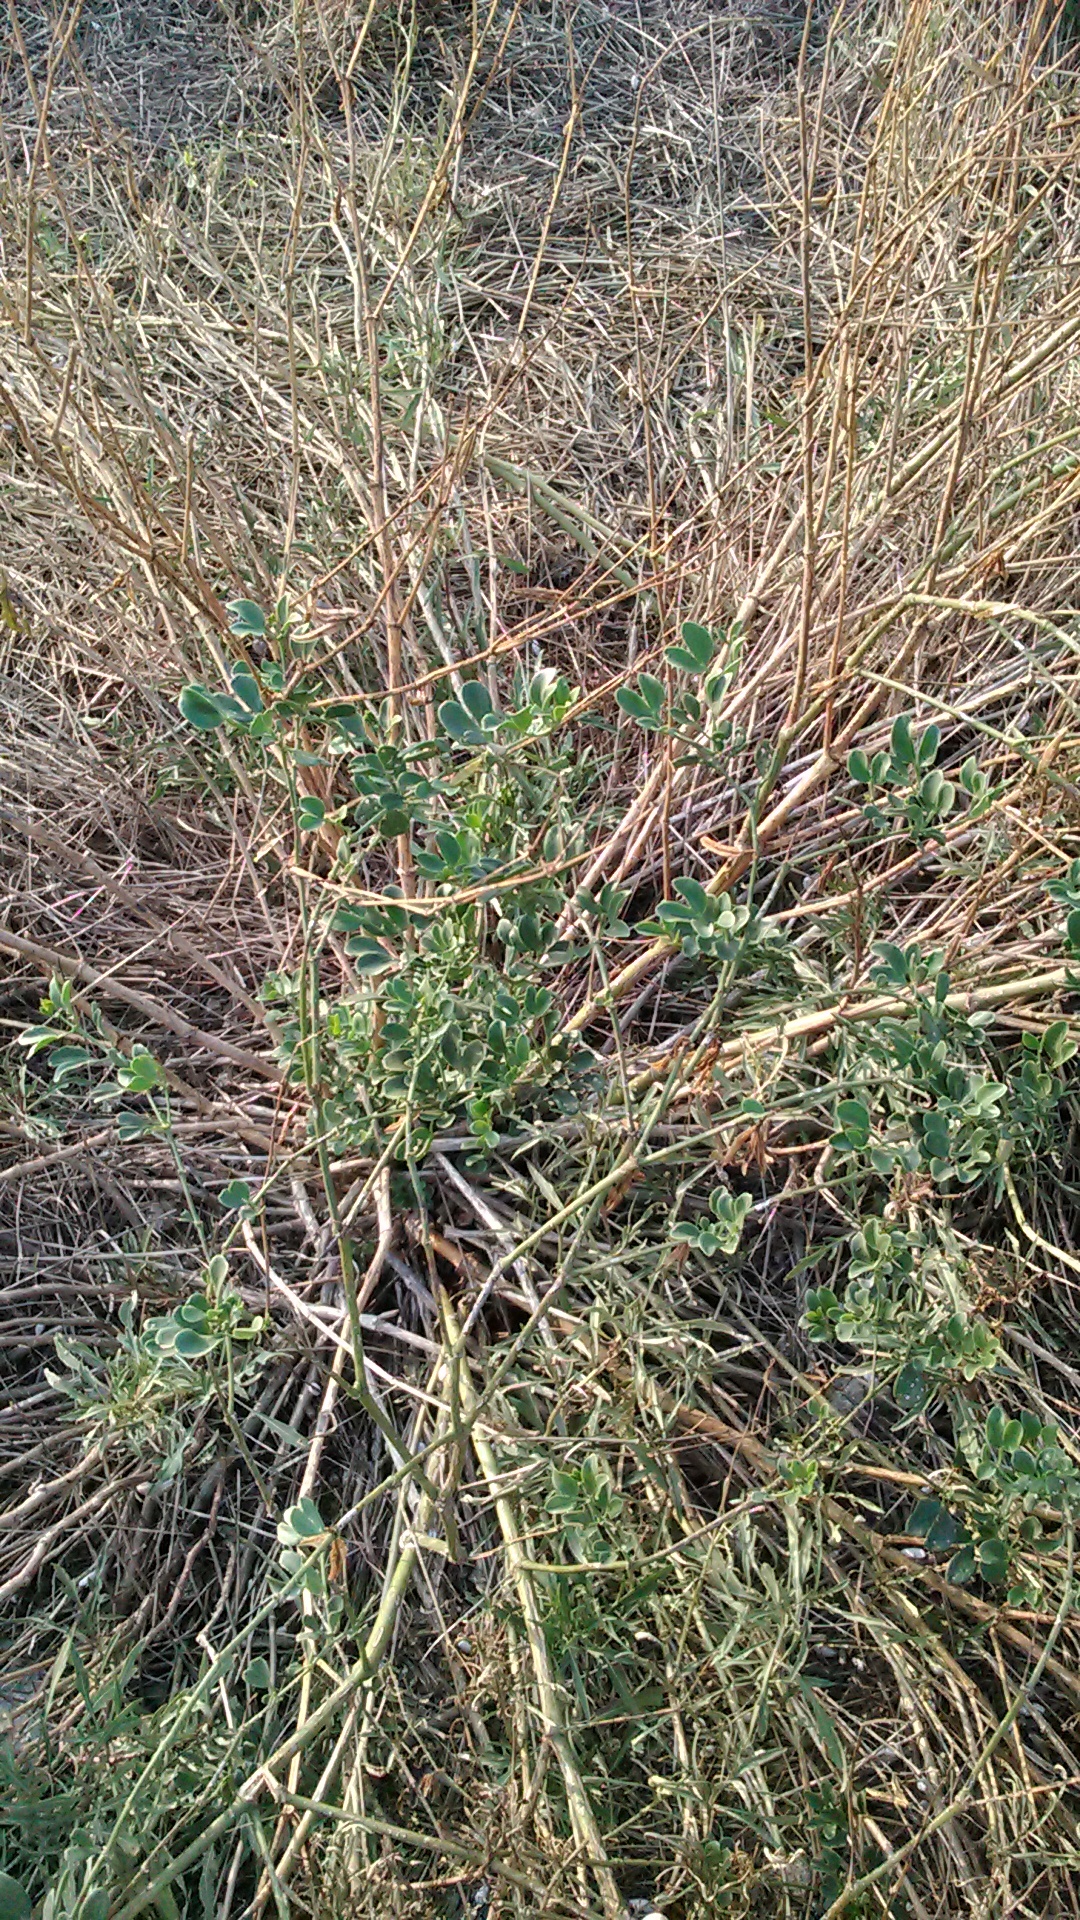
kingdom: Plantae
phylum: Tracheophyta
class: Magnoliopsida
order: Zygophyllales
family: Zygophyllaceae
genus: Zygophyllum
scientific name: Zygophyllum fabago
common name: Syrian beancaper
